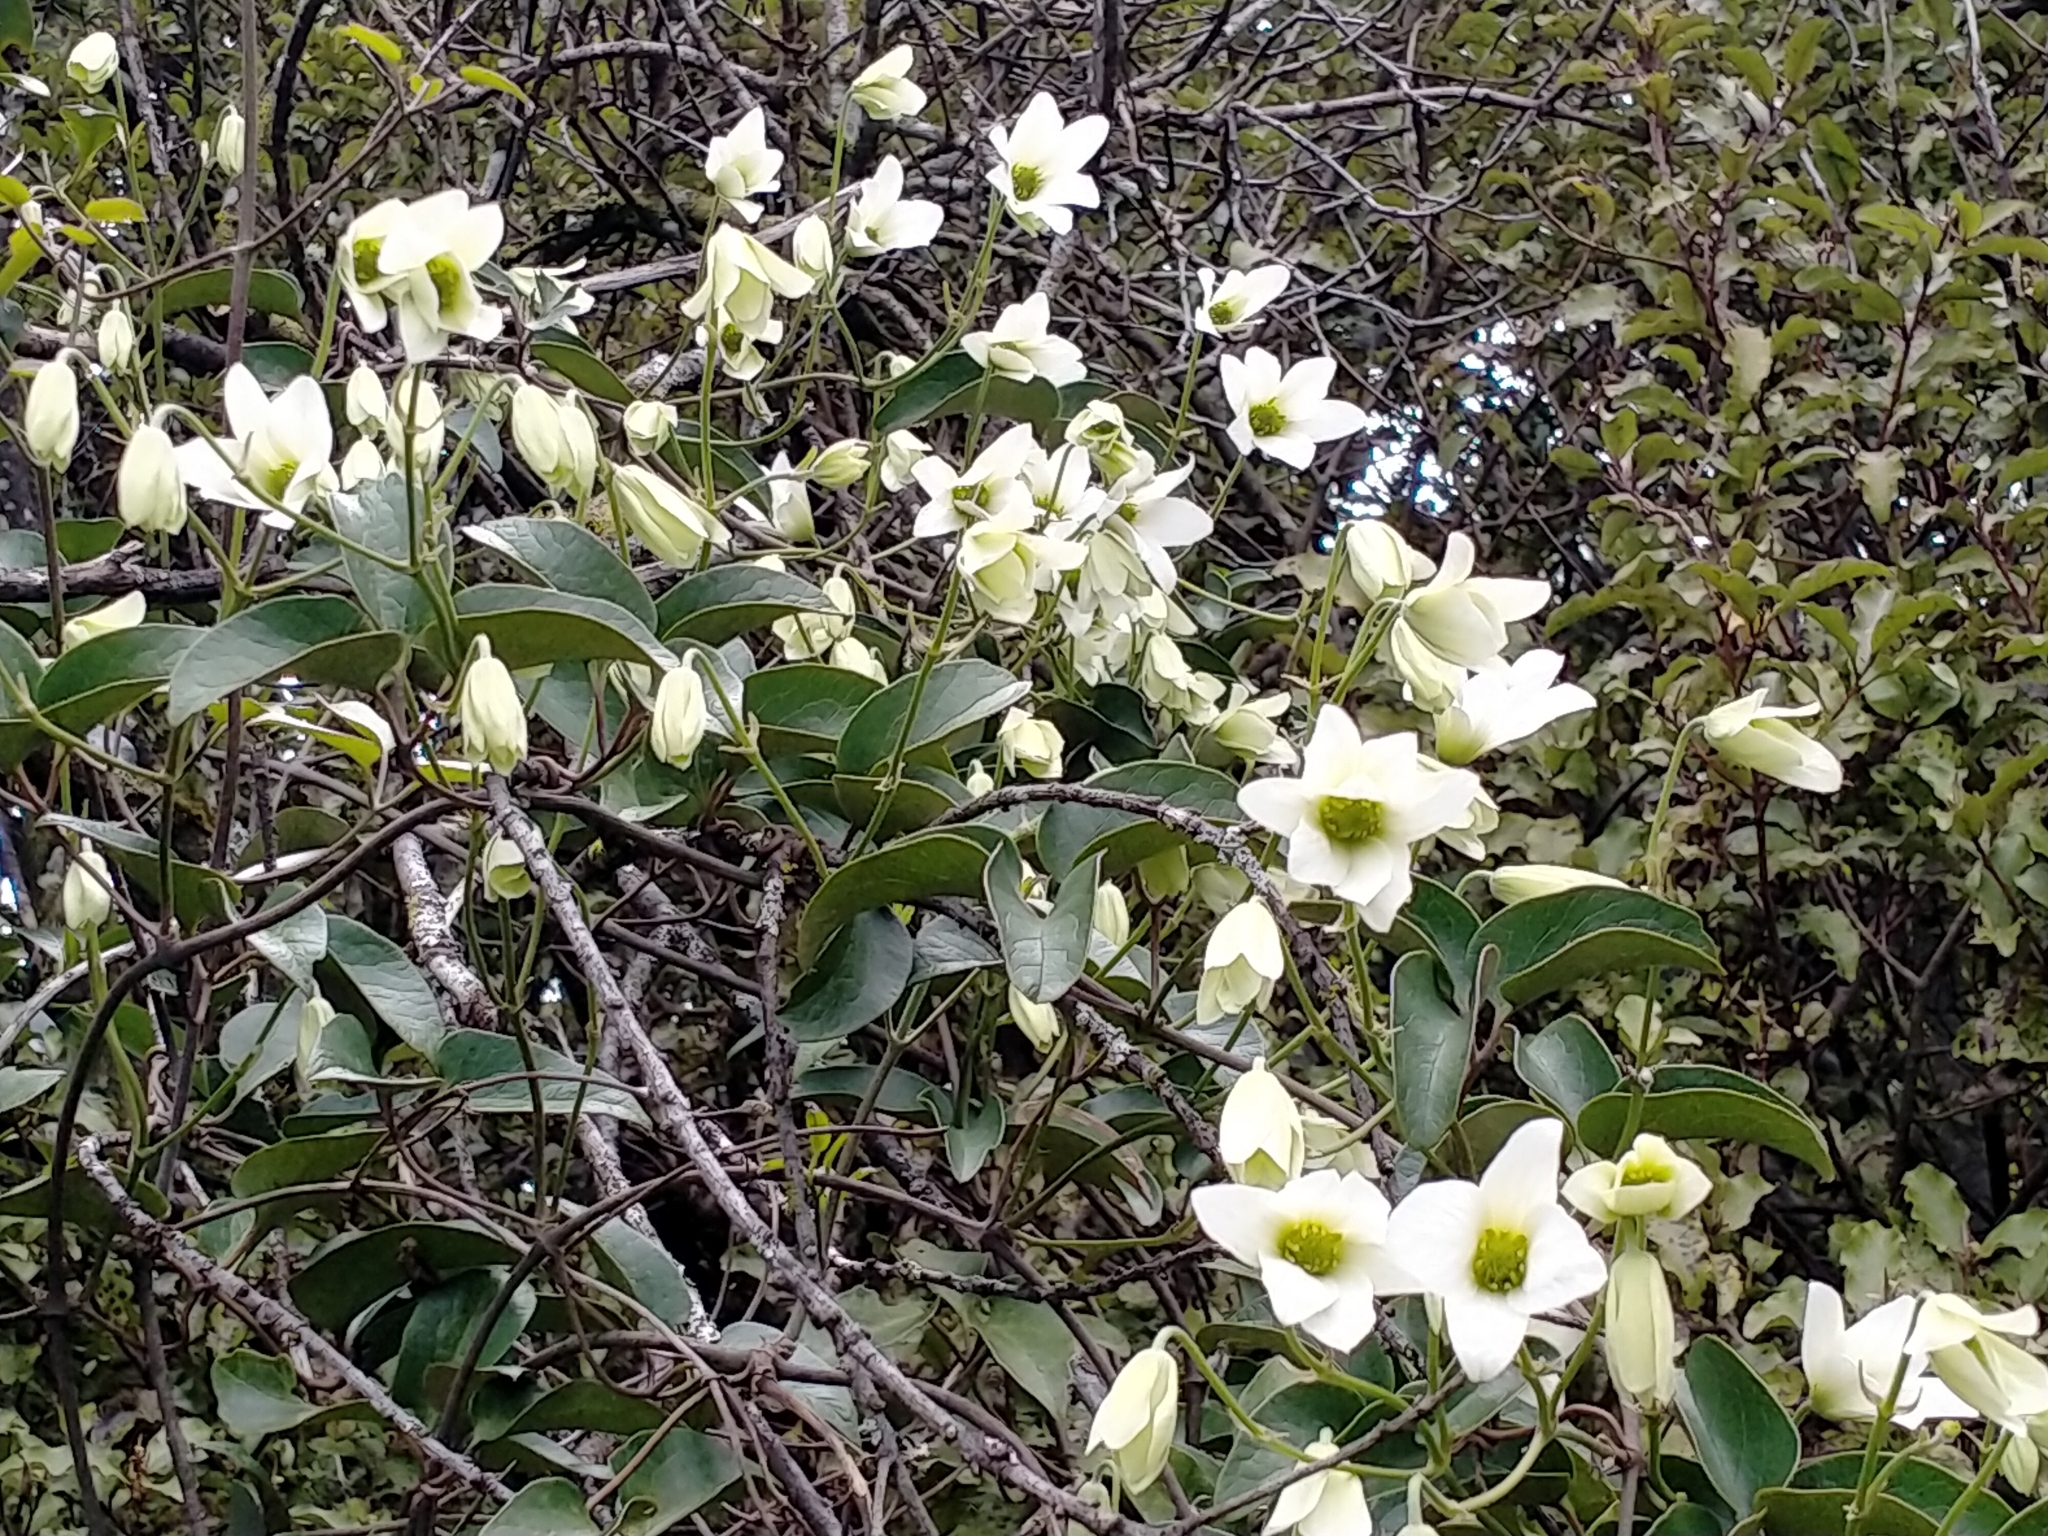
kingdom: Plantae
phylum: Tracheophyta
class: Magnoliopsida
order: Ranunculales
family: Ranunculaceae
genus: Clematis
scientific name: Clematis paniculata
